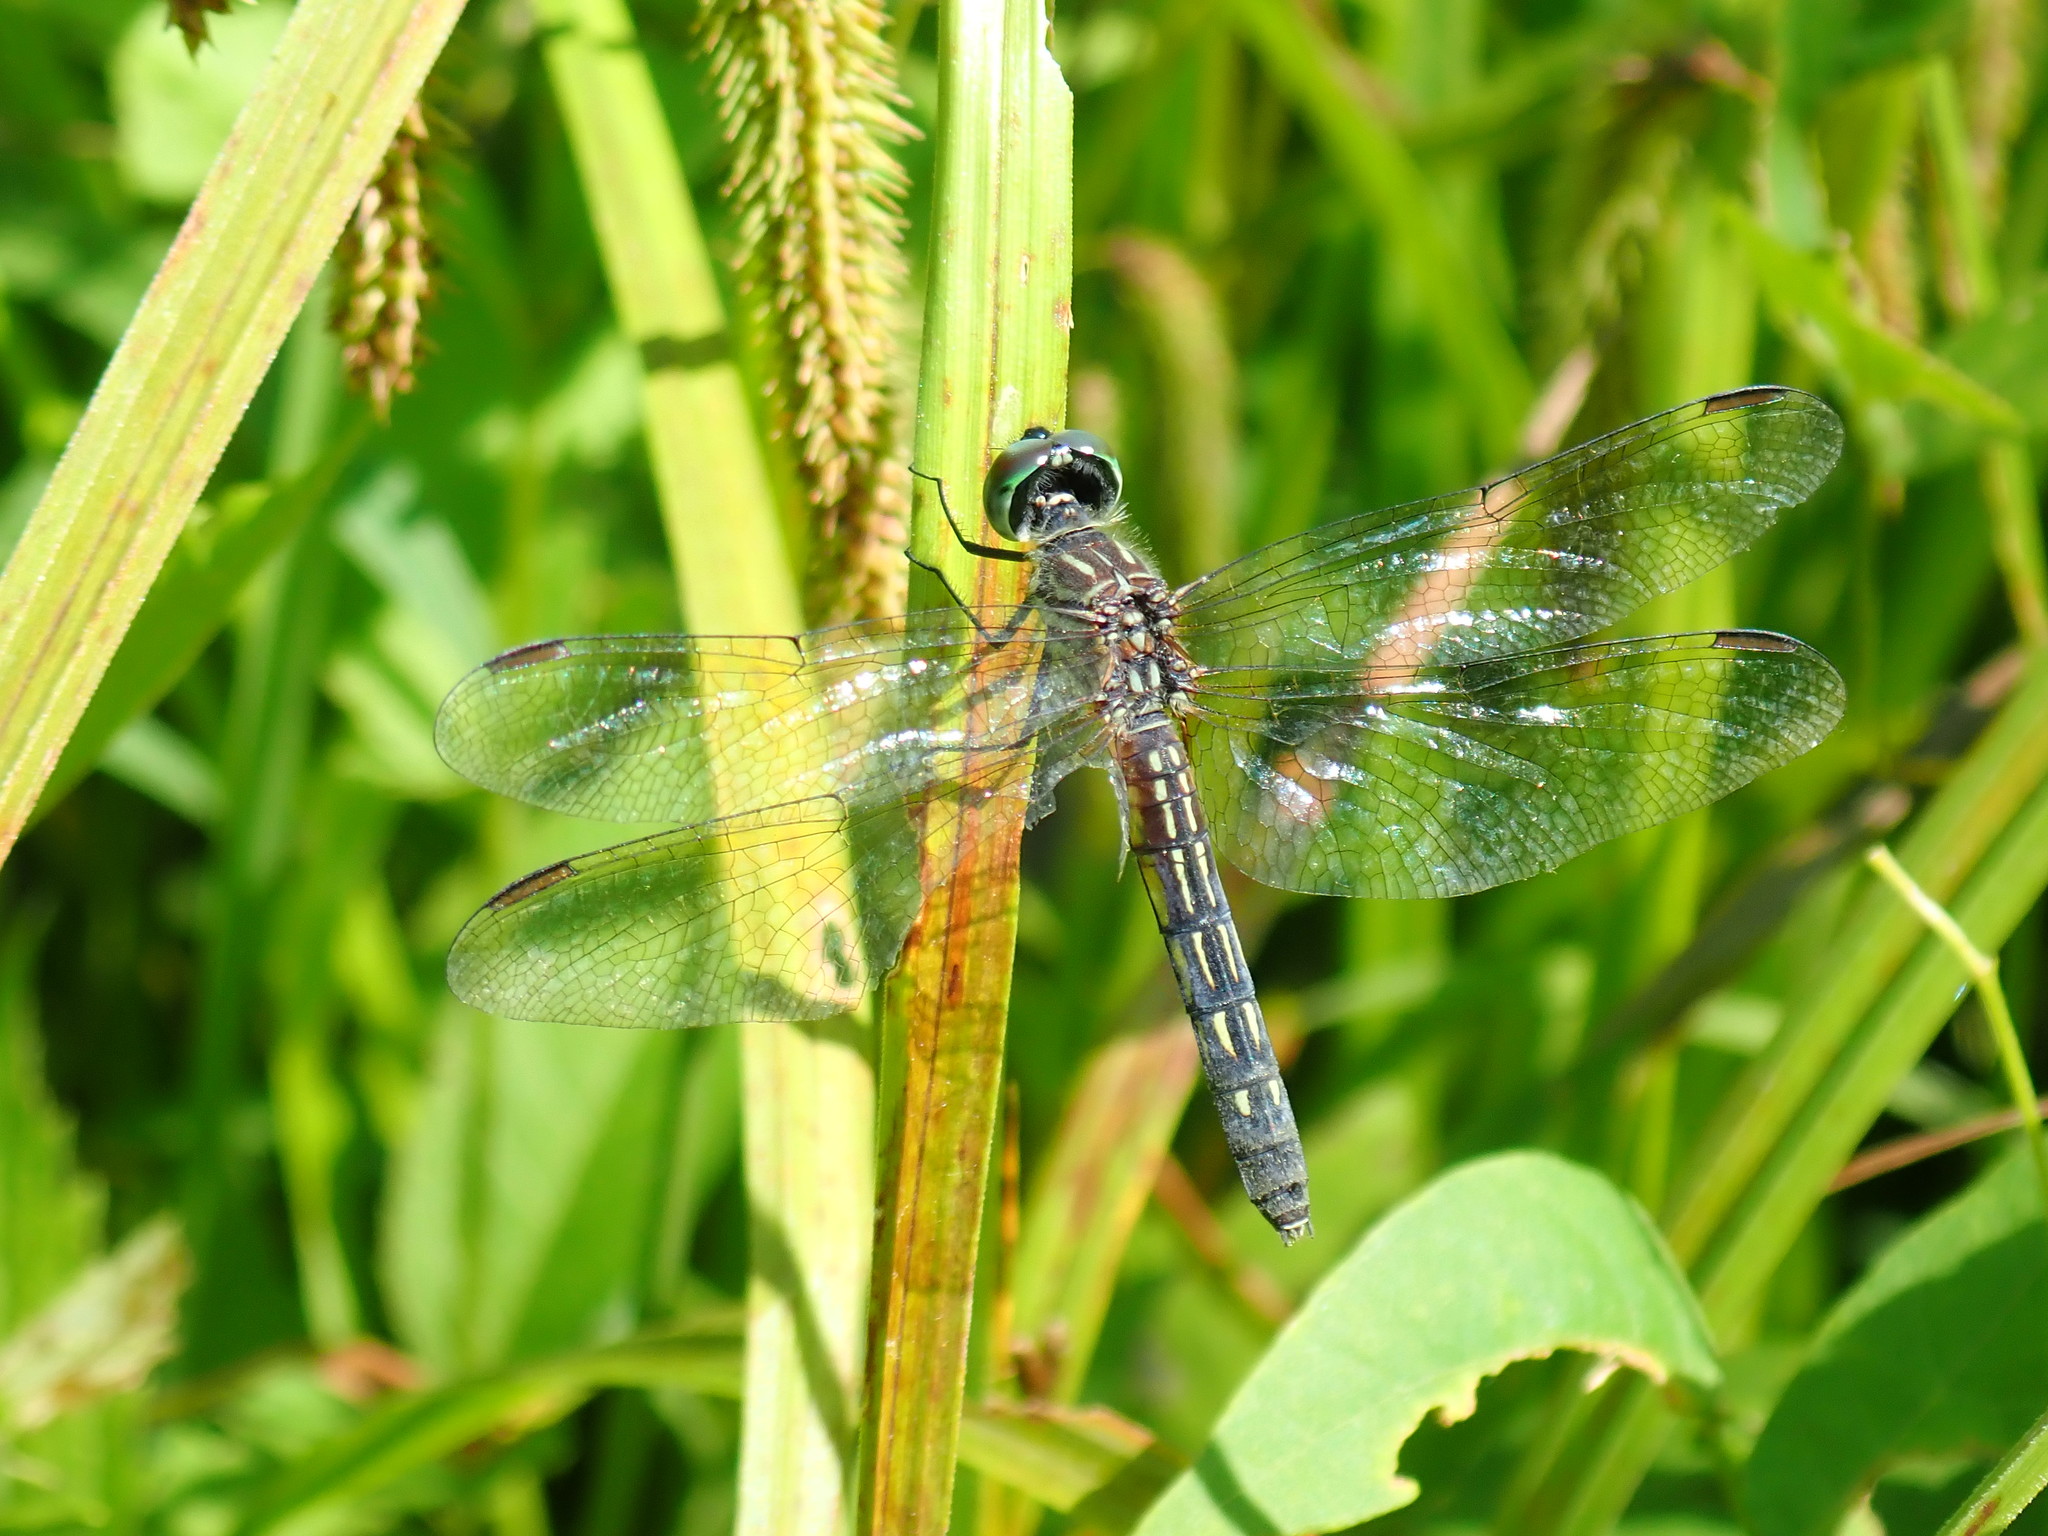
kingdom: Animalia
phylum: Arthropoda
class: Insecta
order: Odonata
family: Libellulidae
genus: Pachydiplax
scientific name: Pachydiplax longipennis
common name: Blue dasher
